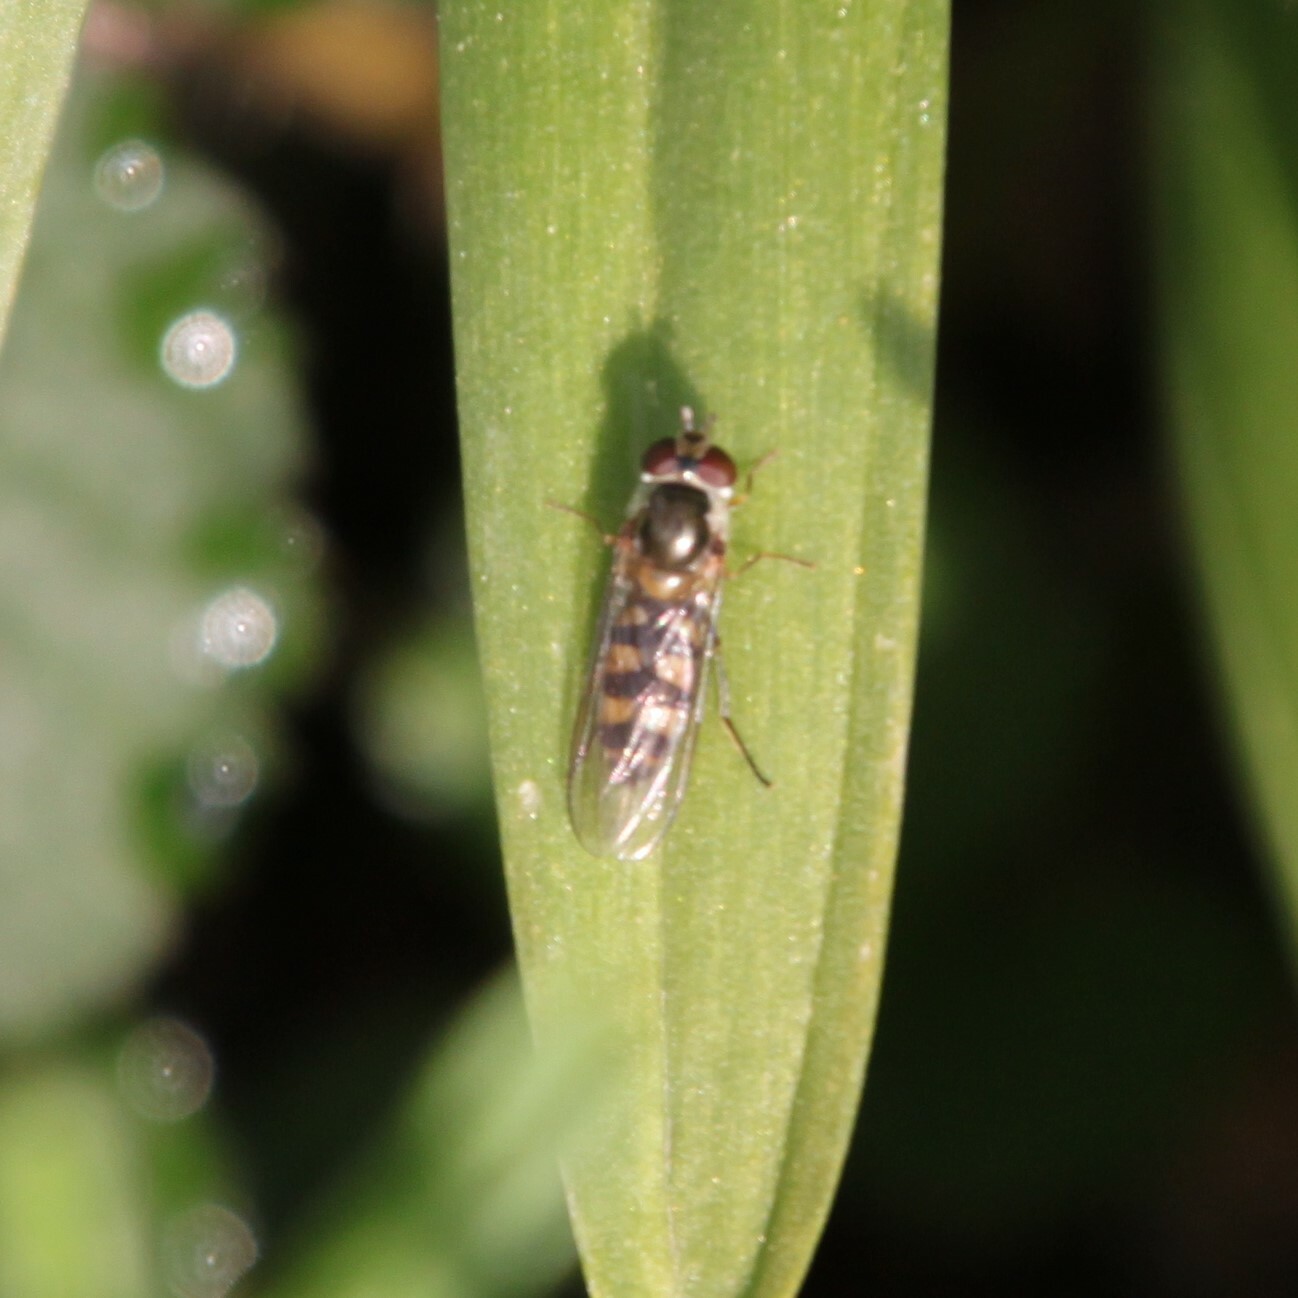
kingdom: Animalia
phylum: Arthropoda
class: Insecta
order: Diptera
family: Syrphidae
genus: Meliscaeva
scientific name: Meliscaeva auricollis
